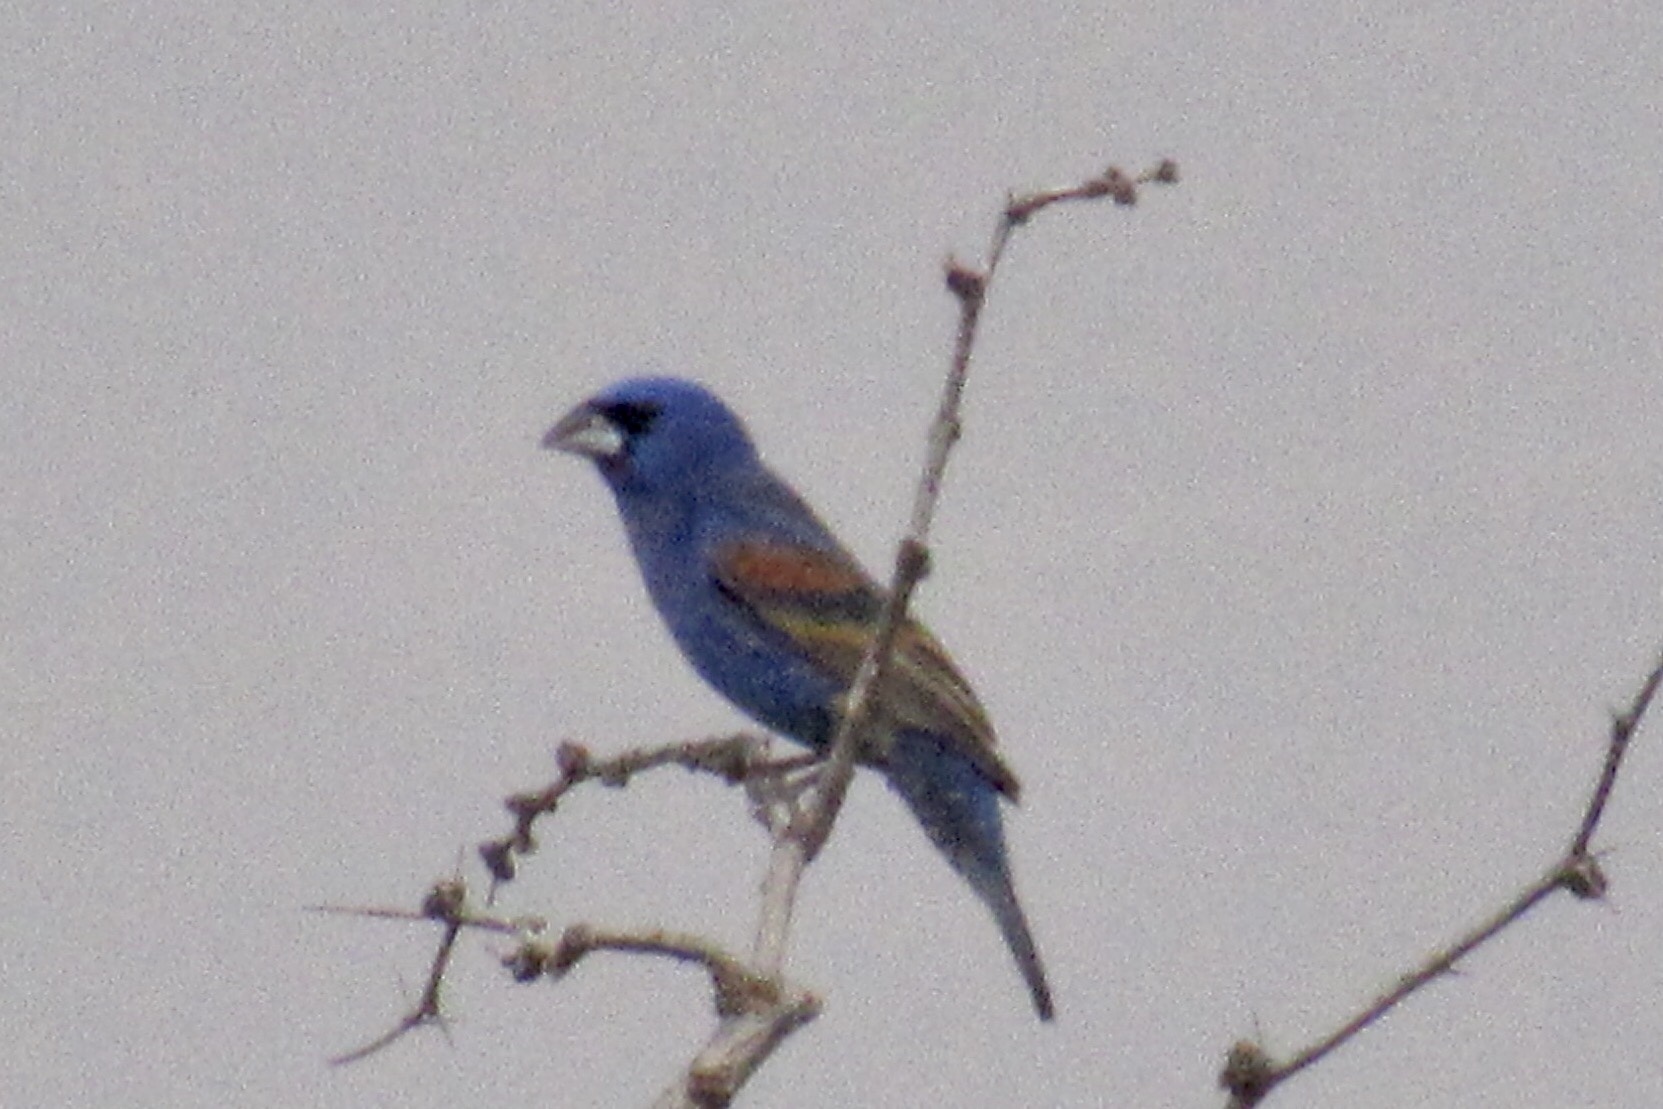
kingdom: Animalia
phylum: Chordata
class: Aves
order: Passeriformes
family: Cardinalidae
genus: Passerina
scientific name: Passerina caerulea
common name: Blue grosbeak
